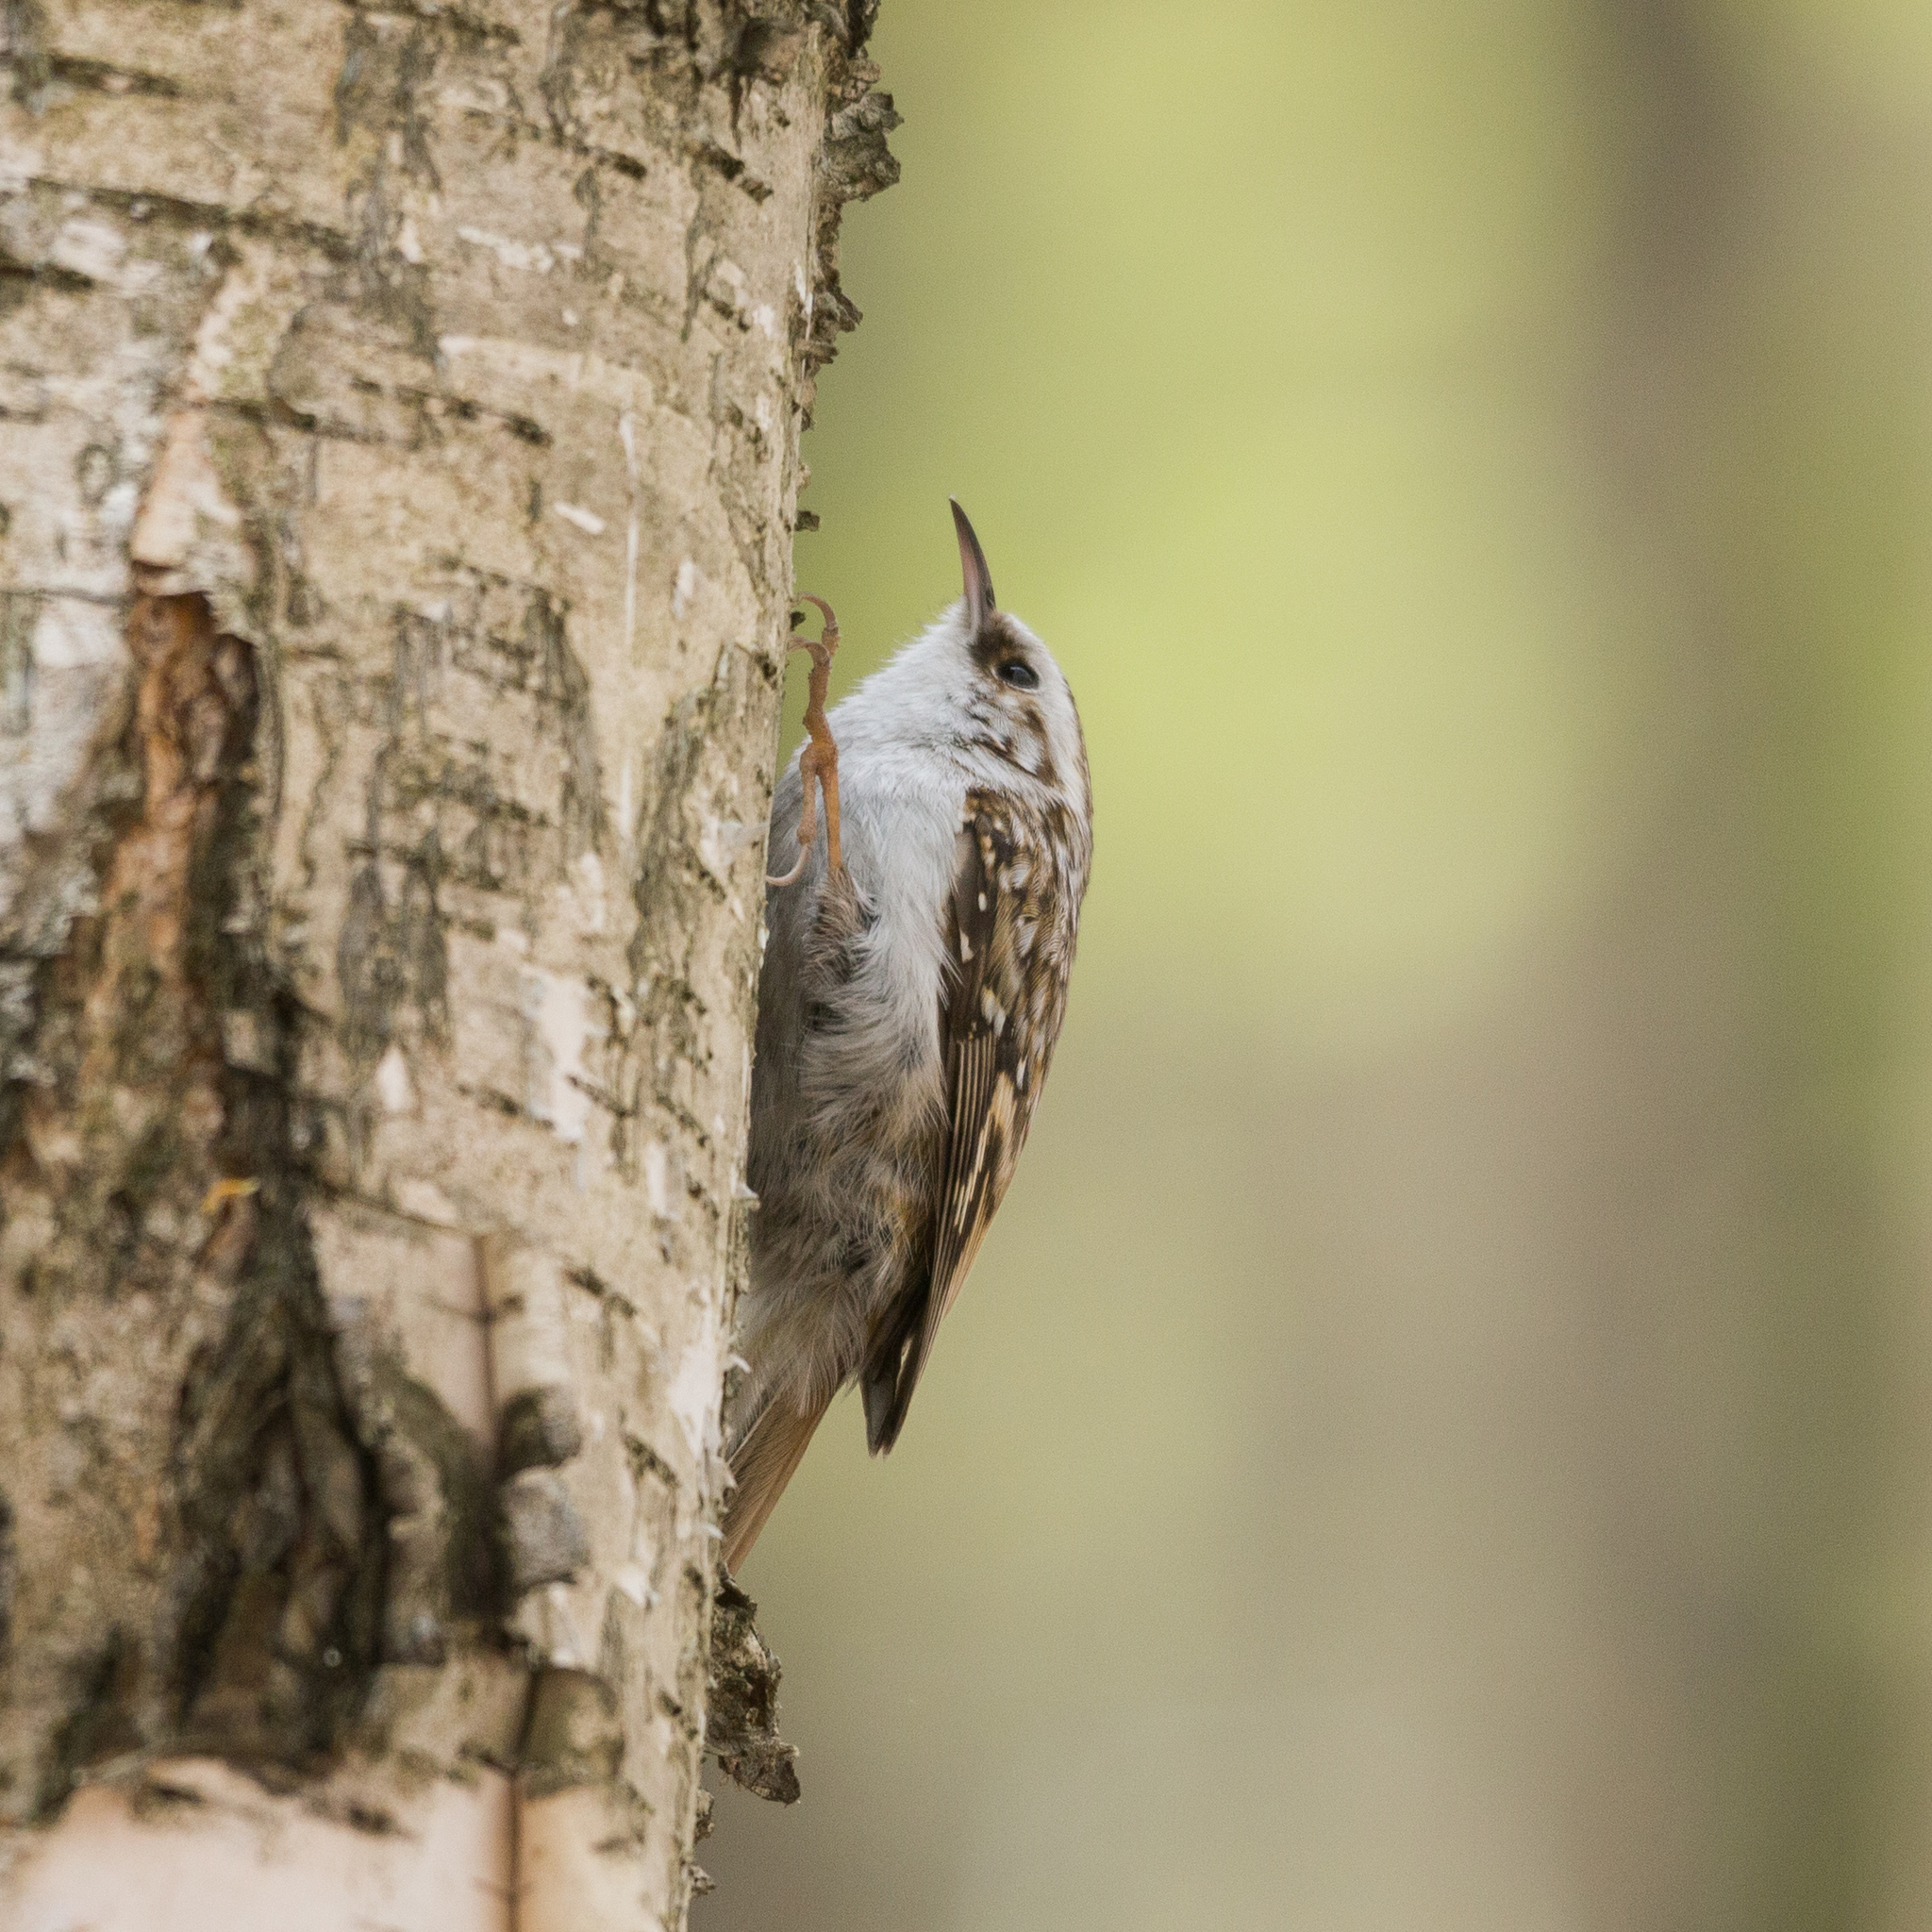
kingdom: Animalia
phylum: Chordata
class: Aves
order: Passeriformes
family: Certhiidae
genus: Certhia
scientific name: Certhia familiaris
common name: Eurasian treecreeper
